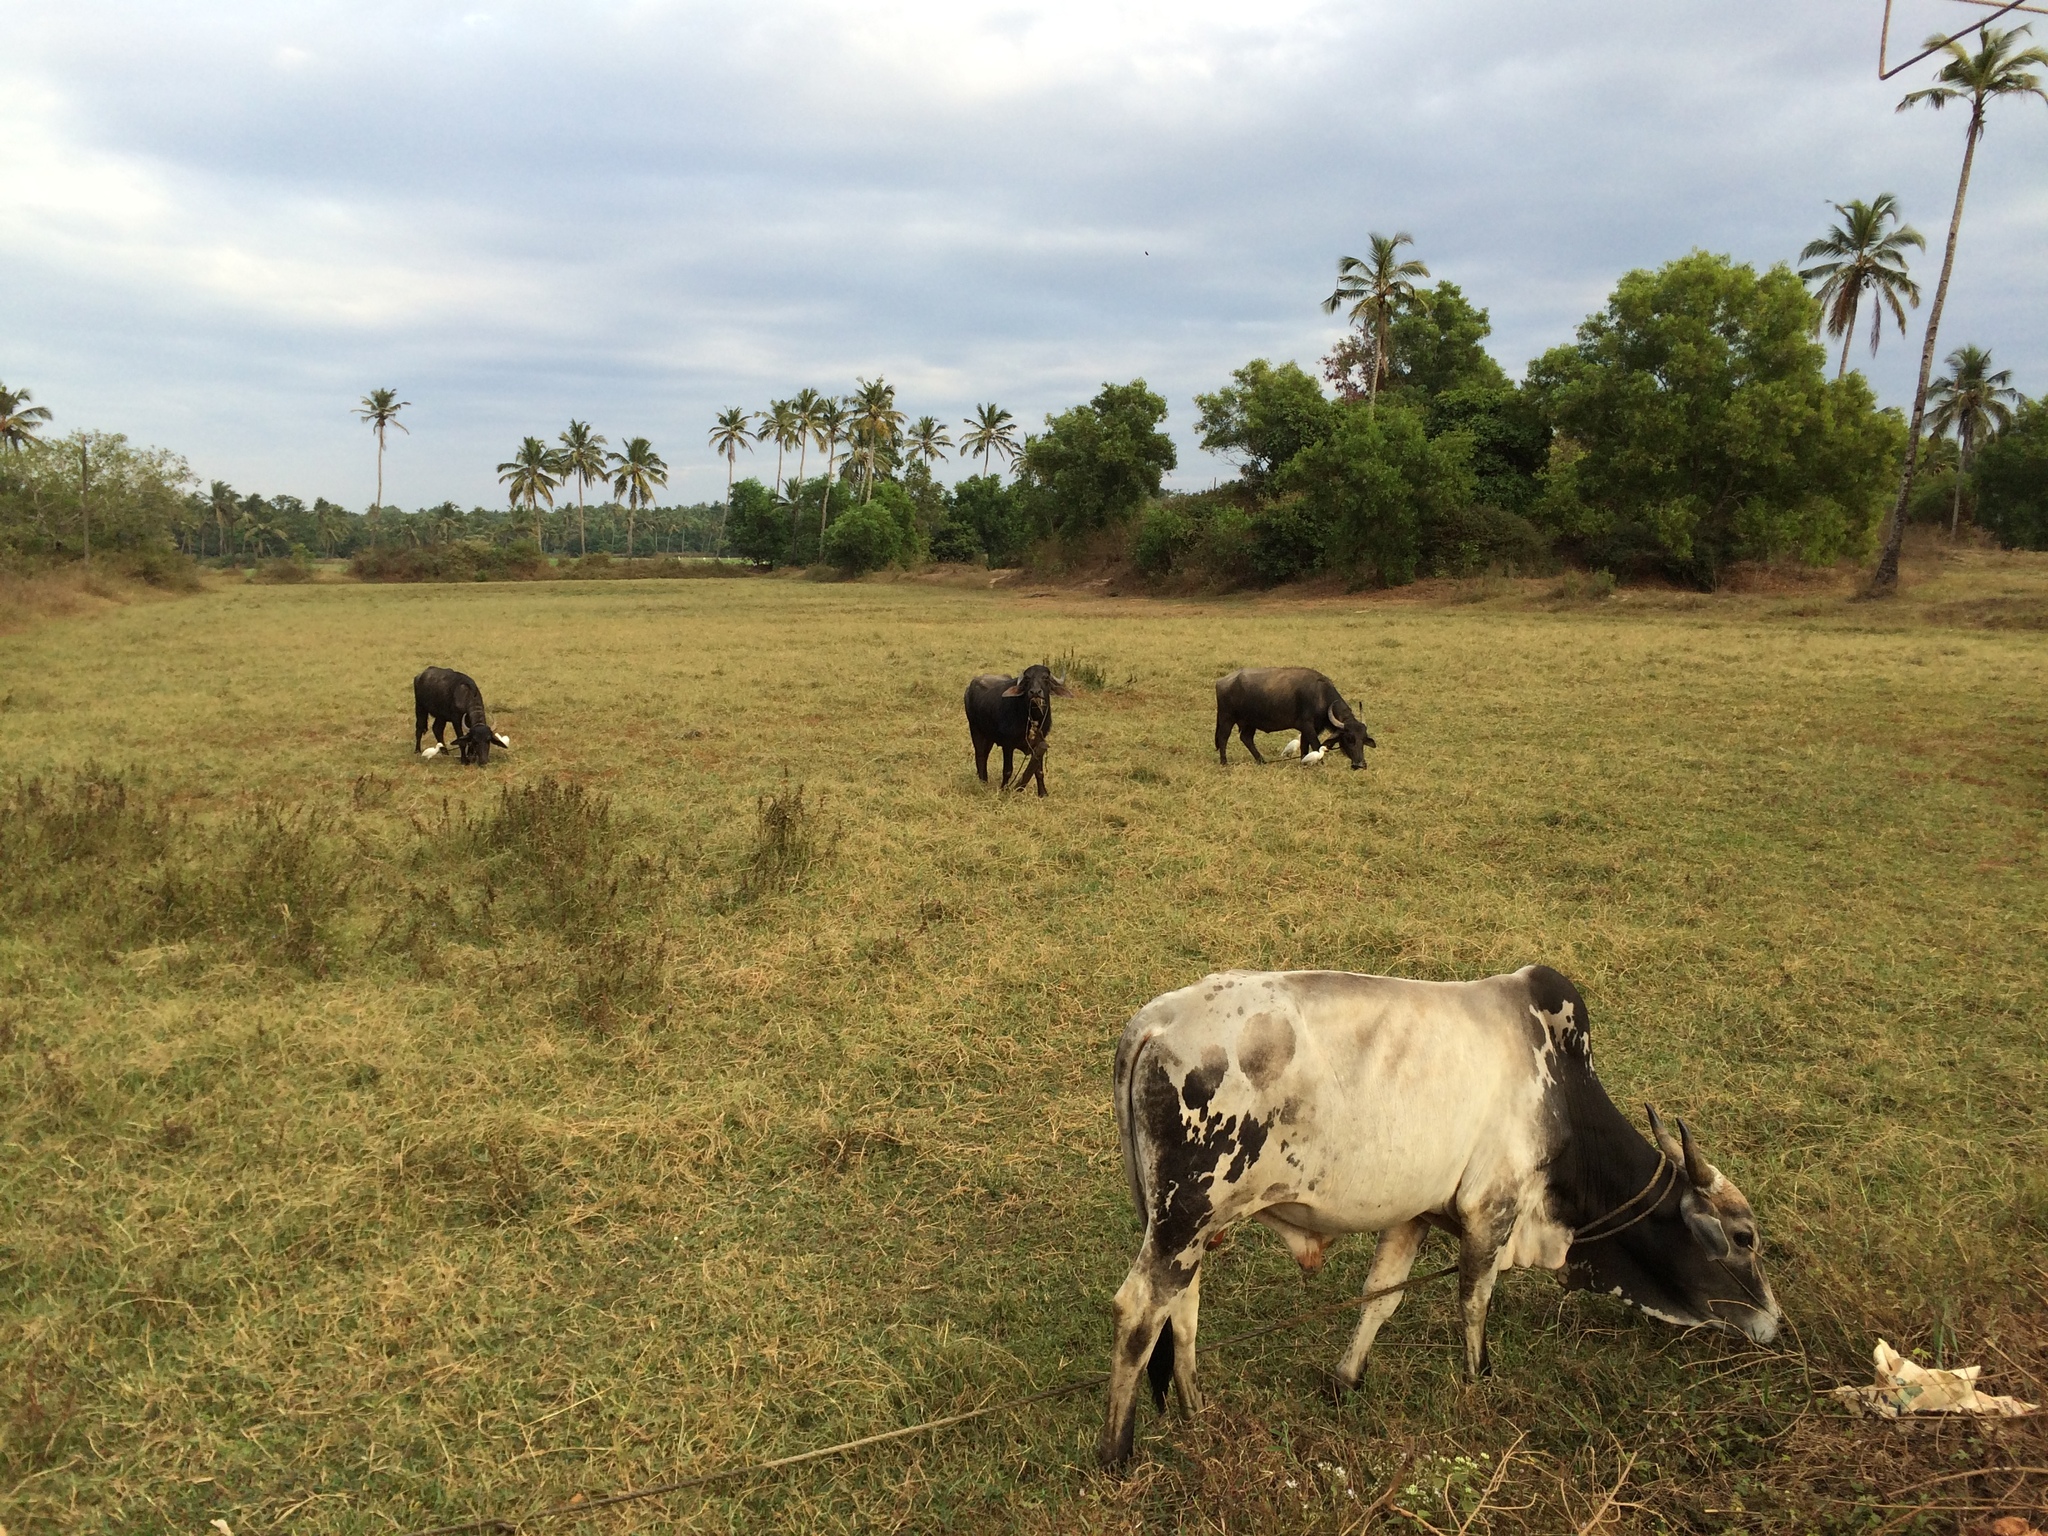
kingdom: Animalia
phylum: Chordata
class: Mammalia
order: Artiodactyla
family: Bovidae
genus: Bos
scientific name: Bos taurus
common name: Domesticated cattle
